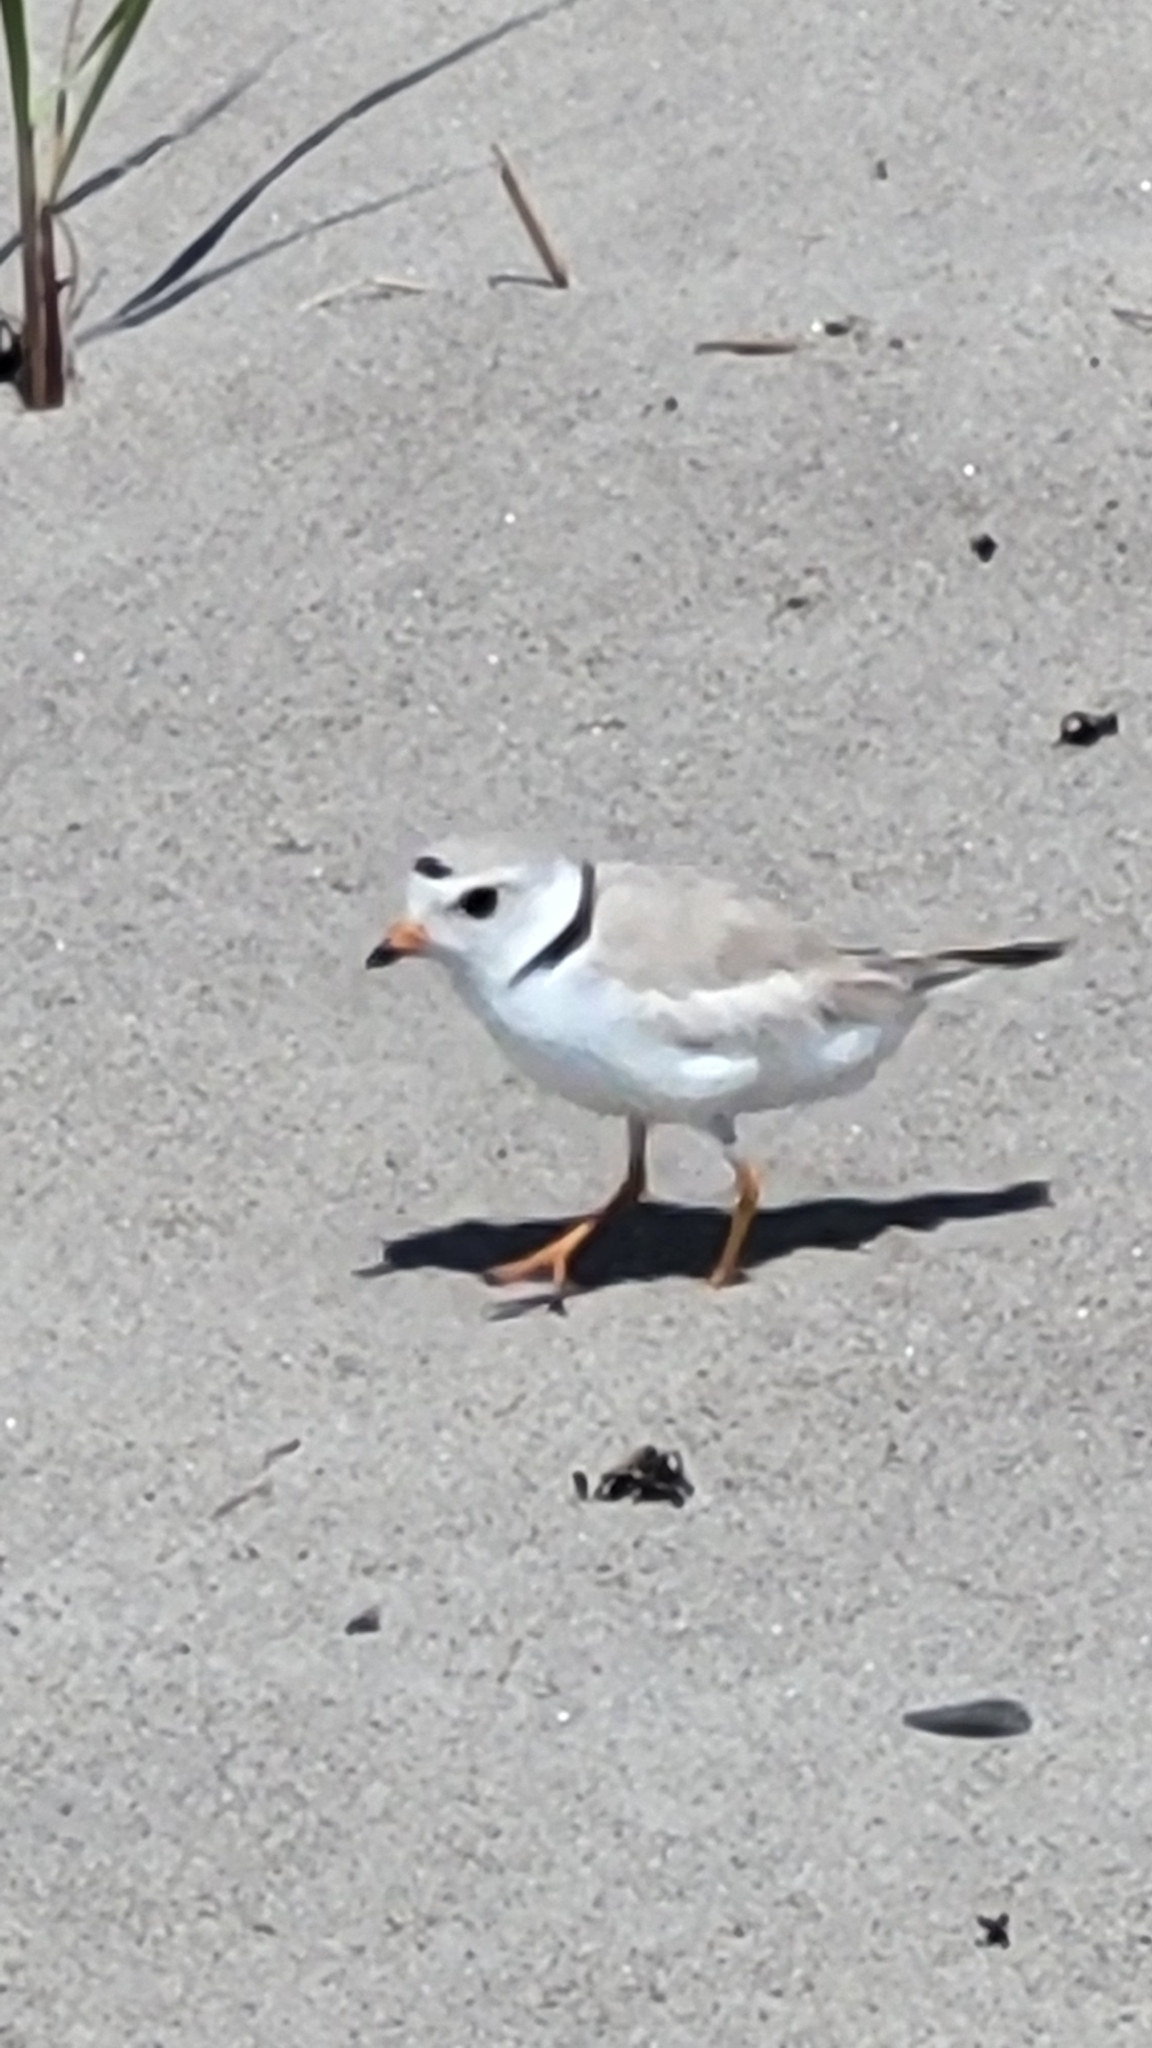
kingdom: Animalia
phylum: Chordata
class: Aves
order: Charadriiformes
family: Charadriidae
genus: Charadrius
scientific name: Charadrius melodus
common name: Piping plover
